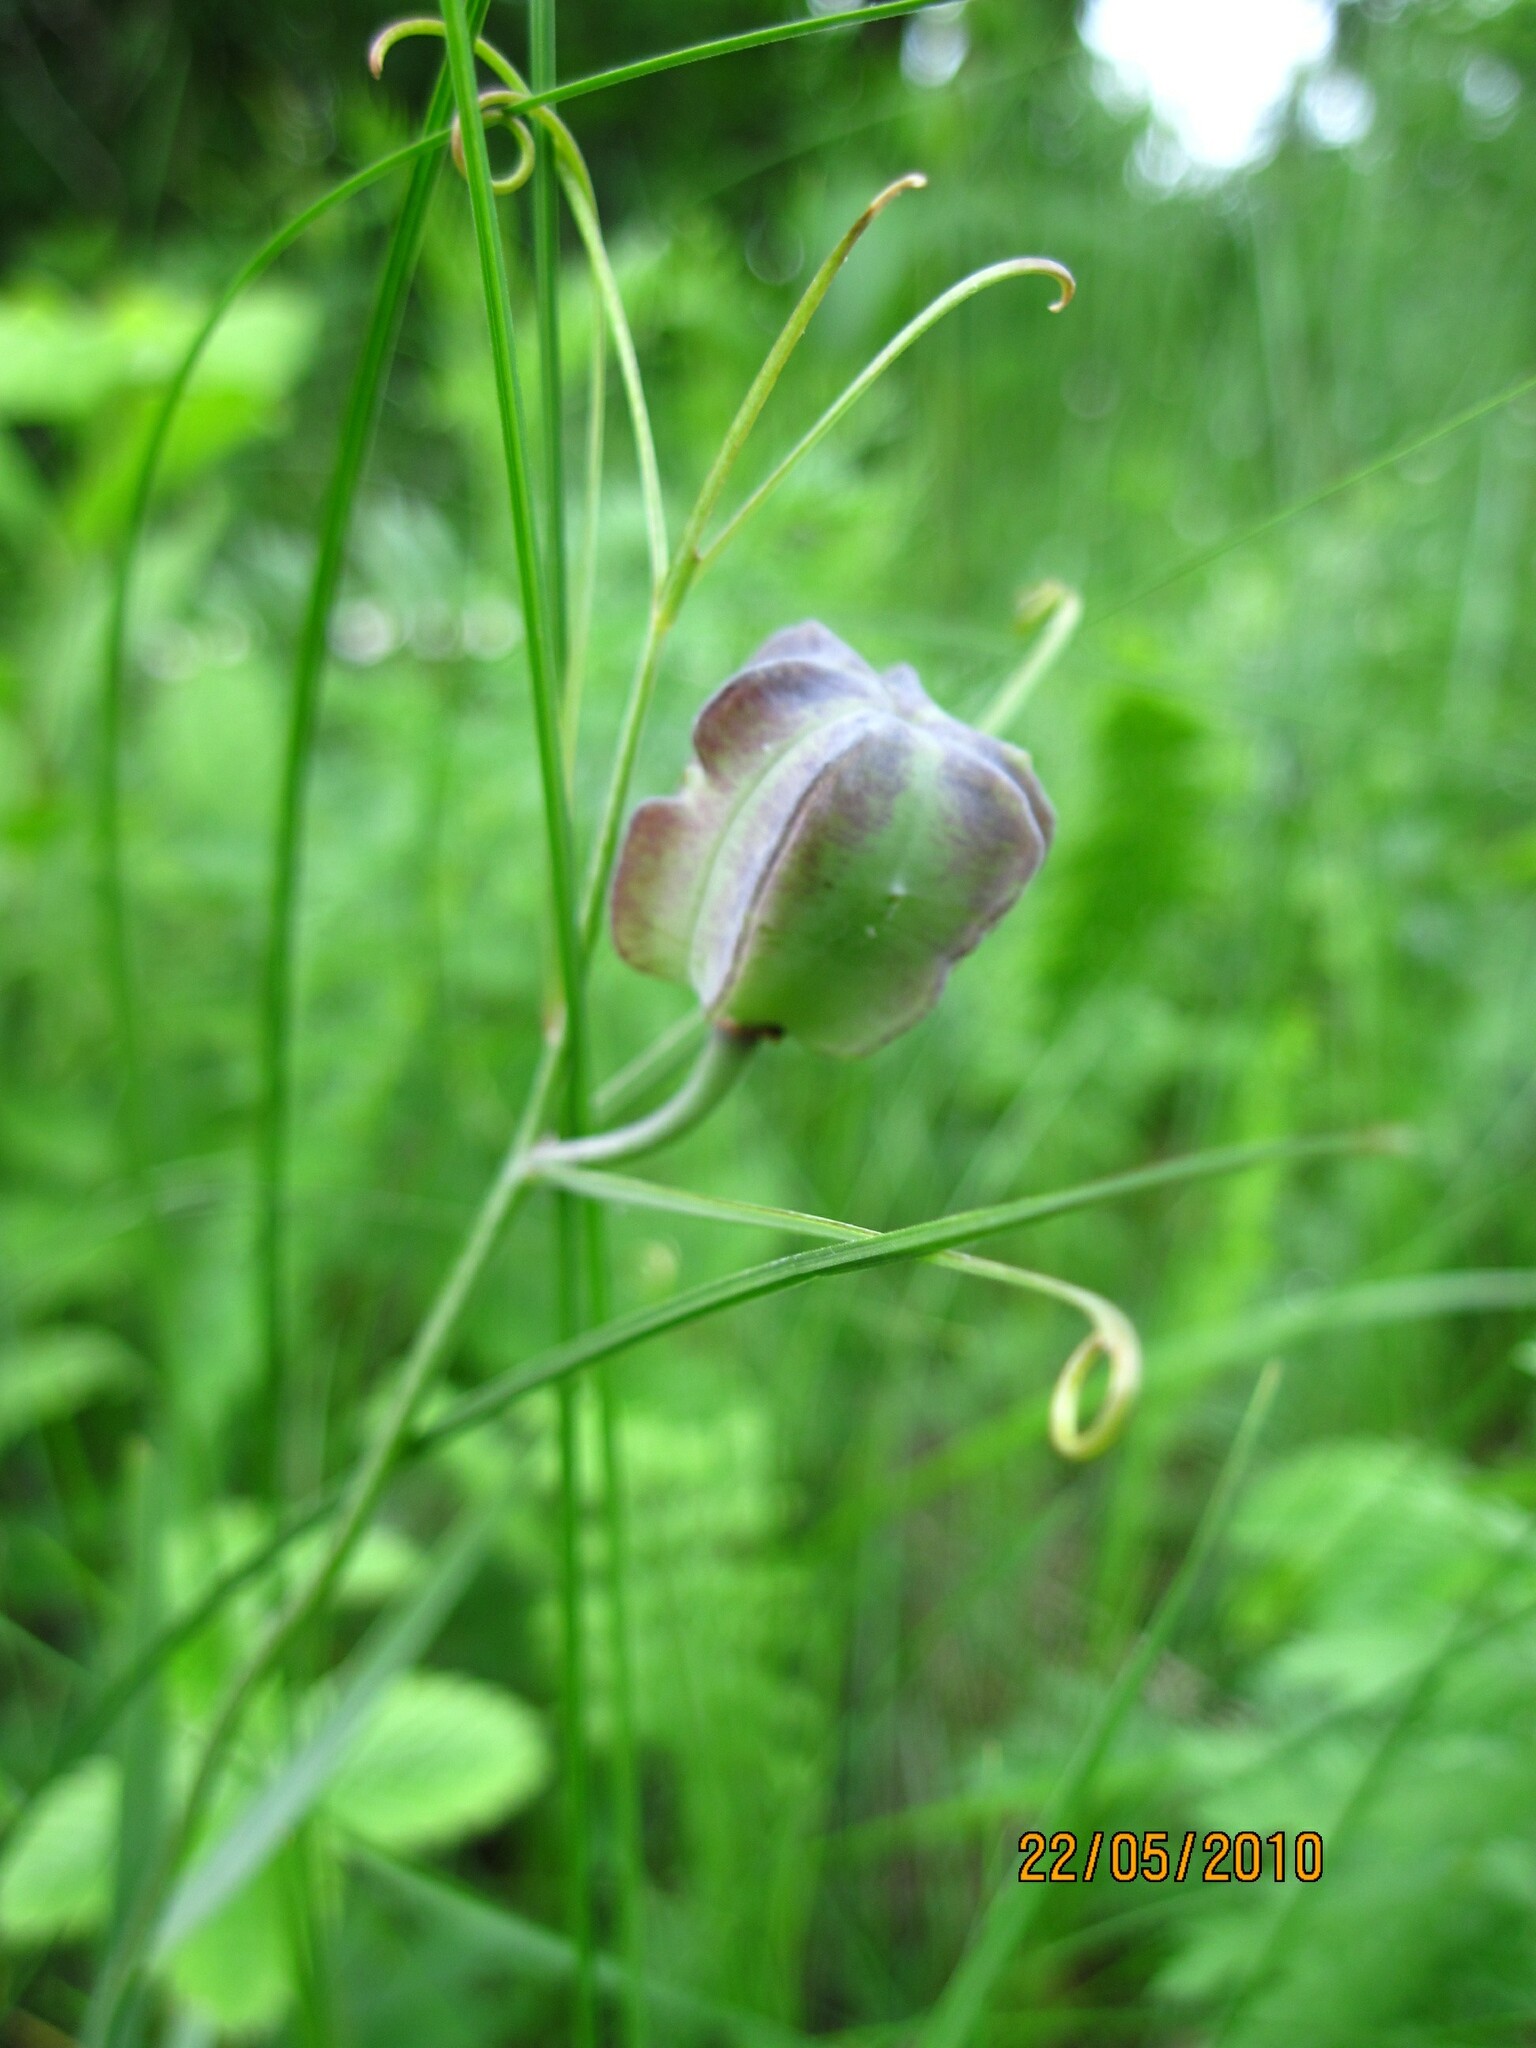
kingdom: Plantae
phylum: Tracheophyta
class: Liliopsida
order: Liliales
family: Liliaceae
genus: Fritillaria
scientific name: Fritillaria ruthenica
